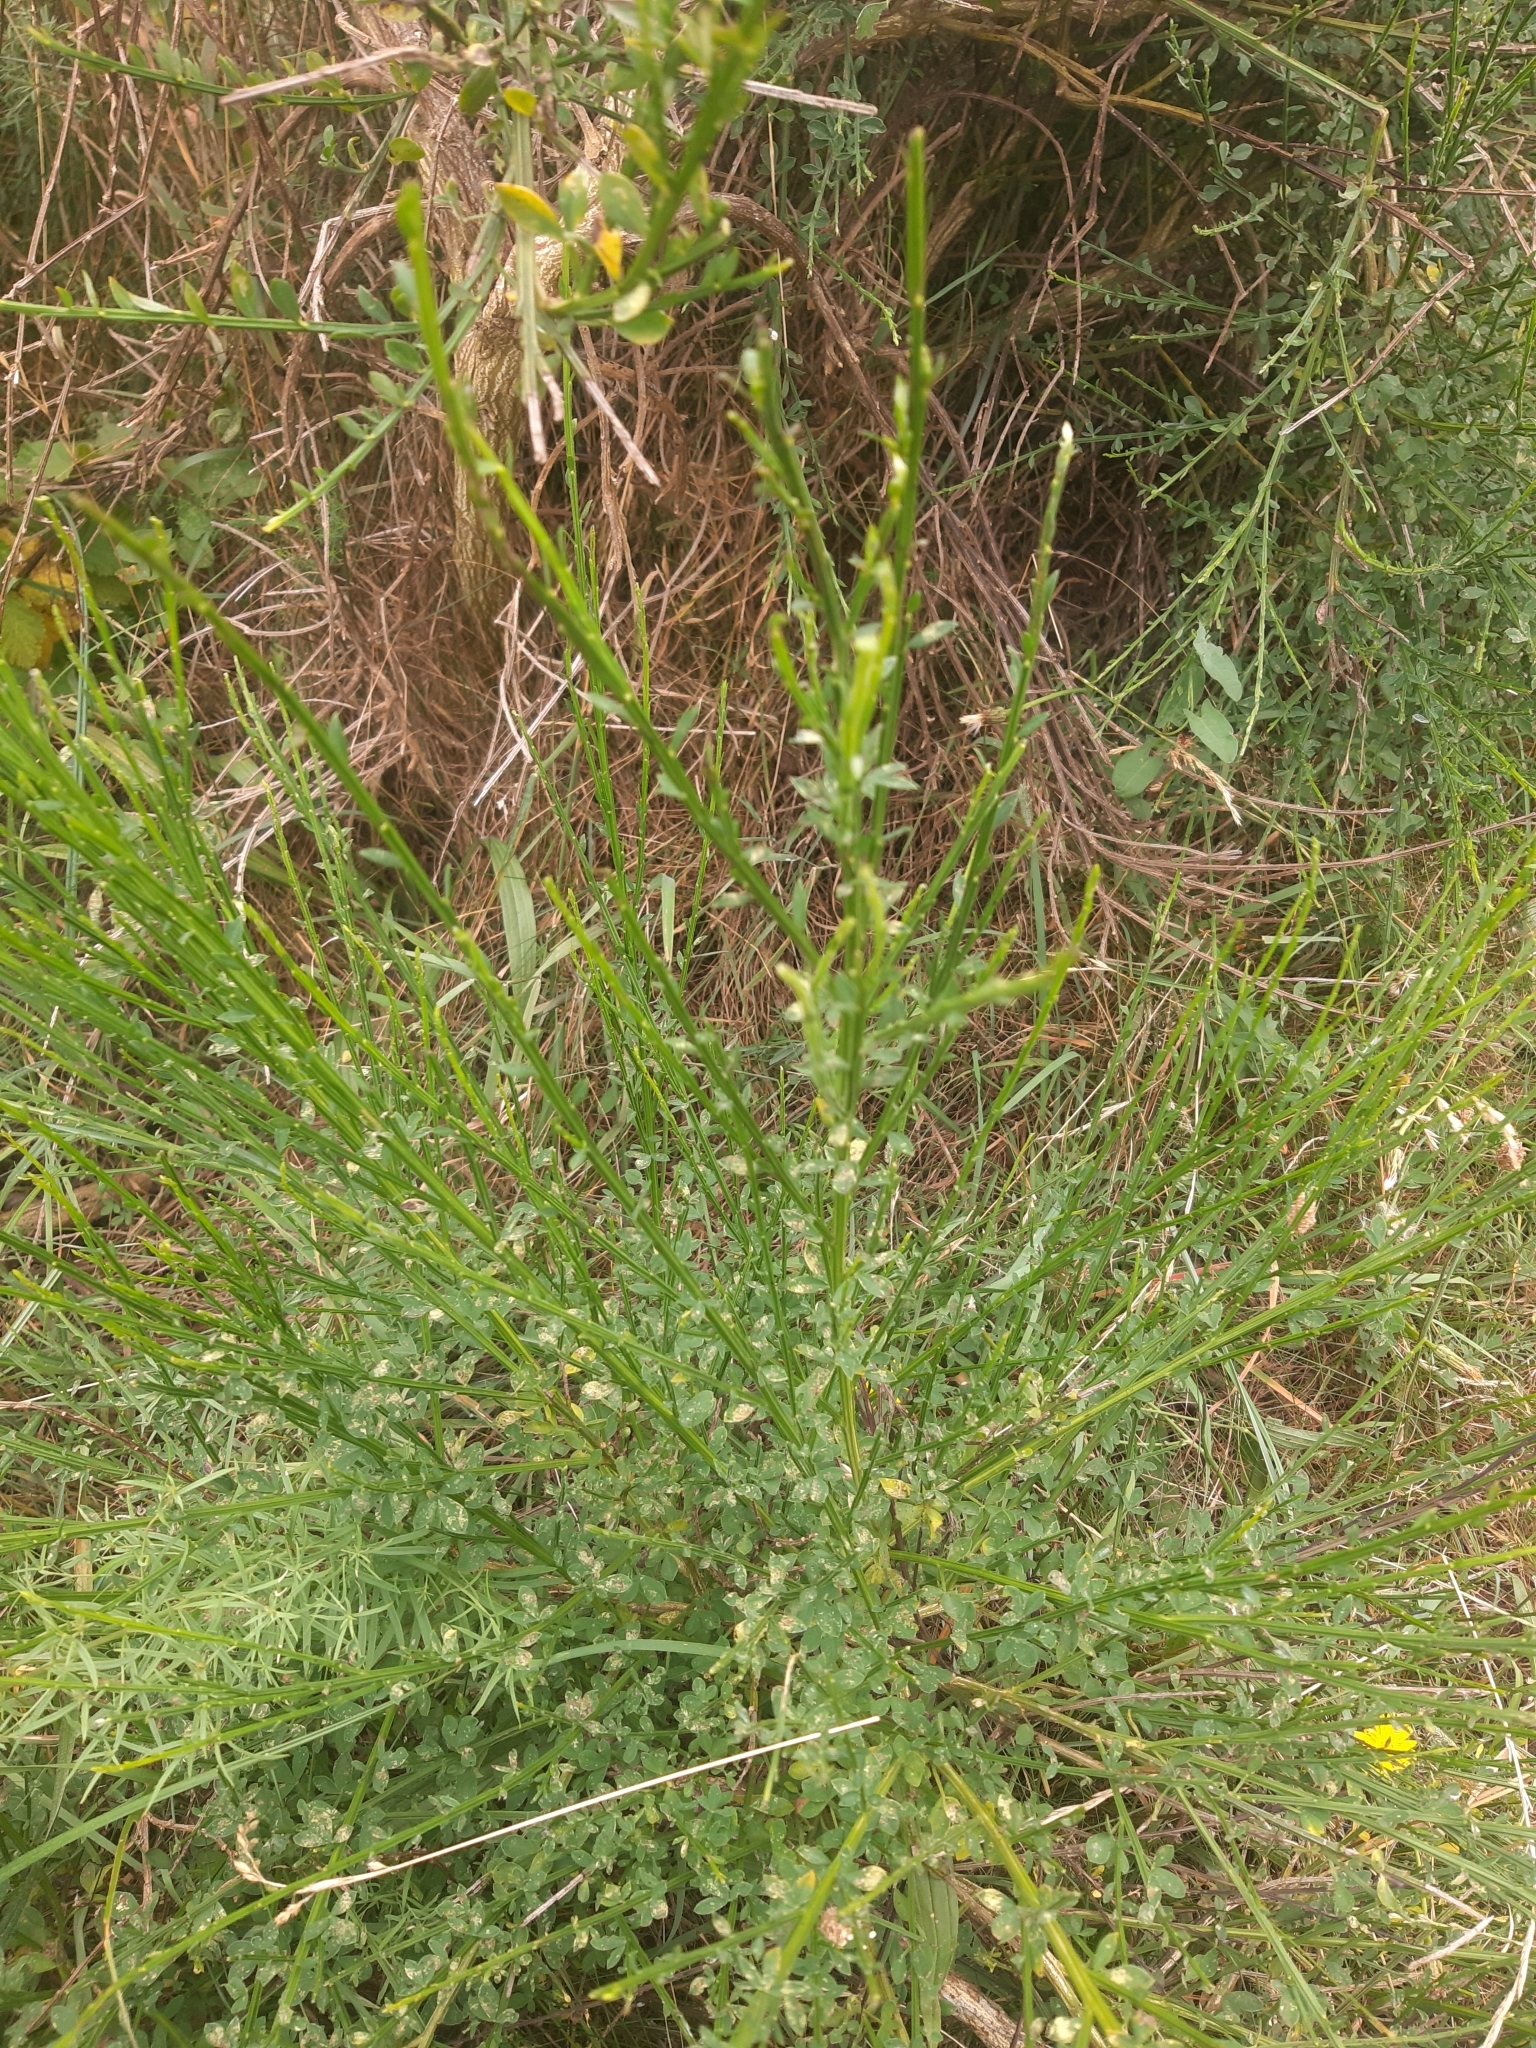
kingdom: Plantae
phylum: Tracheophyta
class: Magnoliopsida
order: Fabales
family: Fabaceae
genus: Cytisus
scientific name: Cytisus scoparius
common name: Scotch broom
